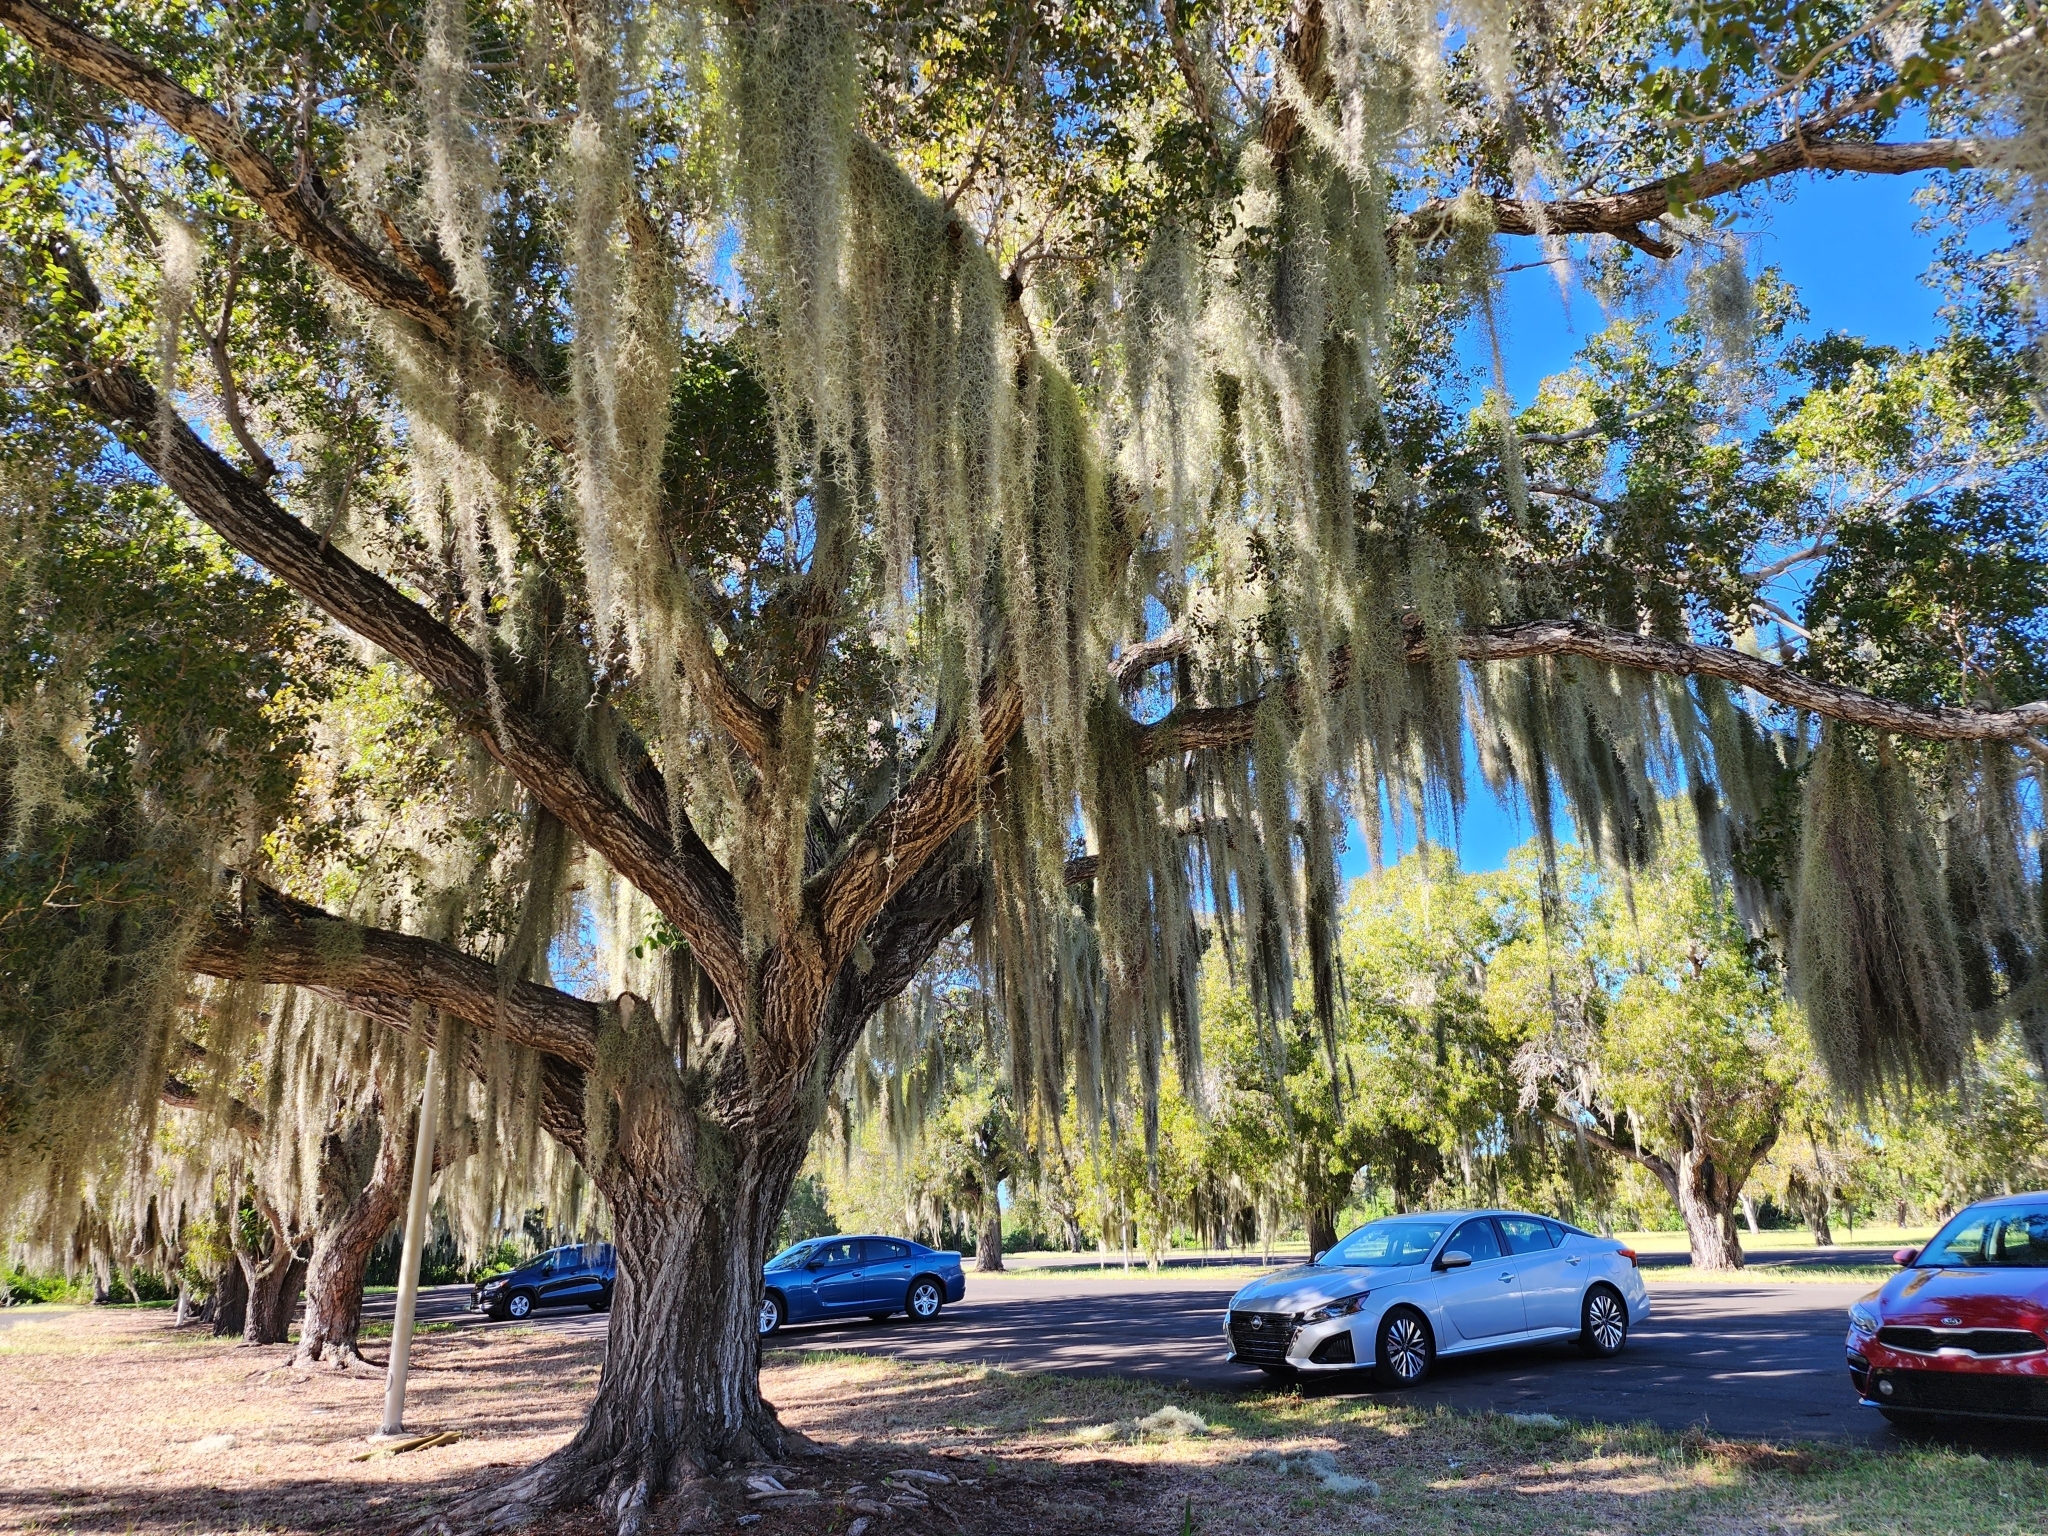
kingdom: Plantae
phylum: Tracheophyta
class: Liliopsida
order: Poales
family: Bromeliaceae
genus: Tillandsia
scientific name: Tillandsia usneoides
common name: Spanish moss
